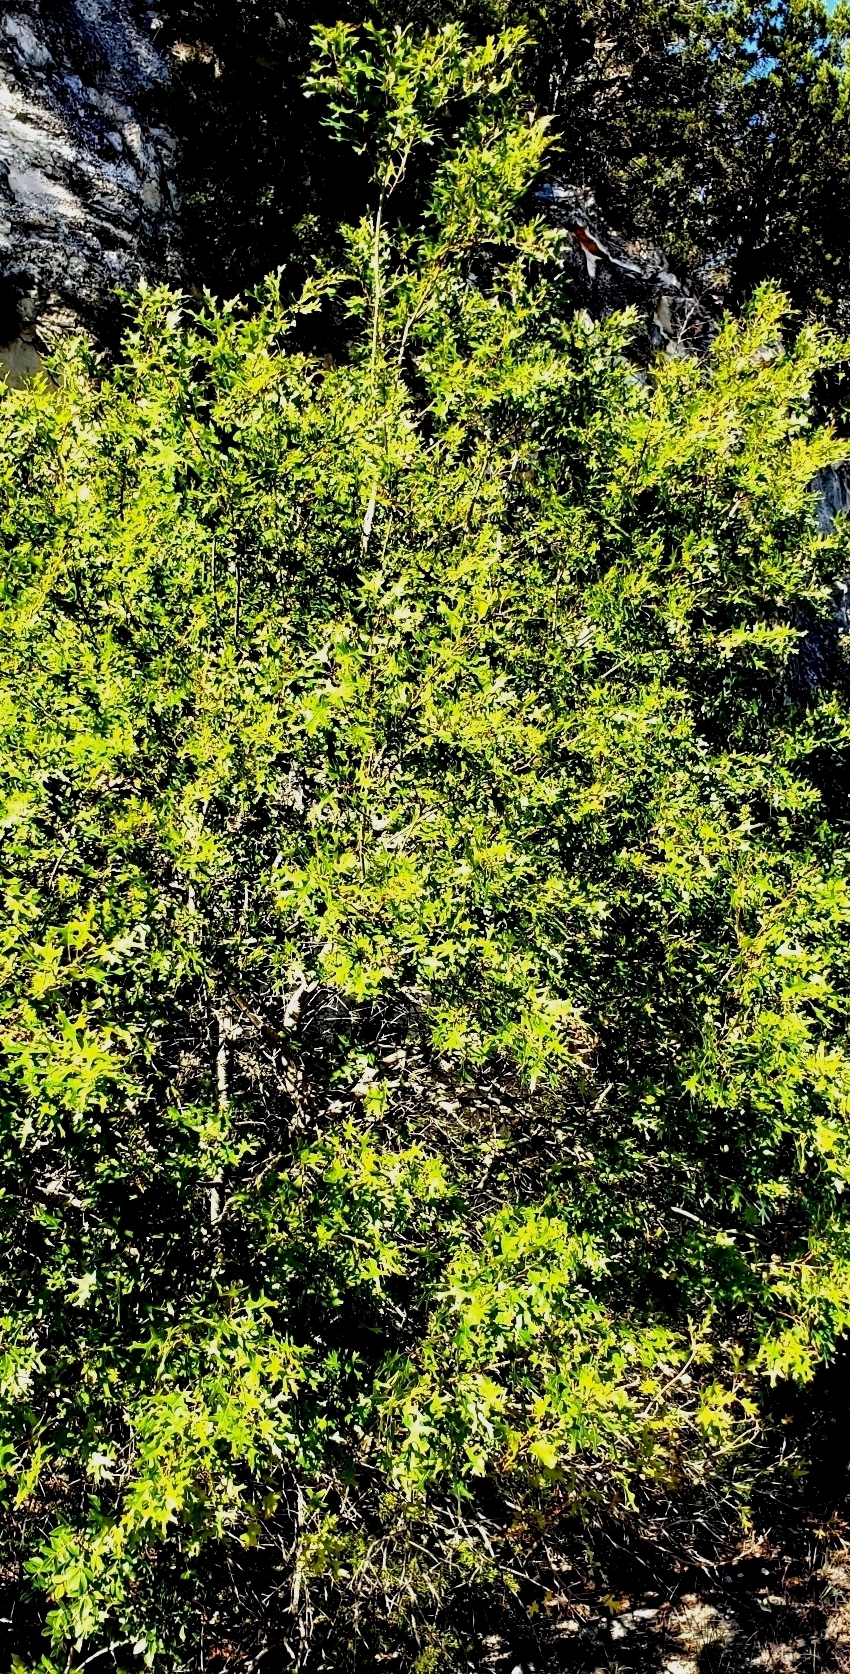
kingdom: Plantae
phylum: Tracheophyta
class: Magnoliopsida
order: Fagales
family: Fagaceae
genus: Quercus
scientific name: Quercus buckleyi
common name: Buckley oak
